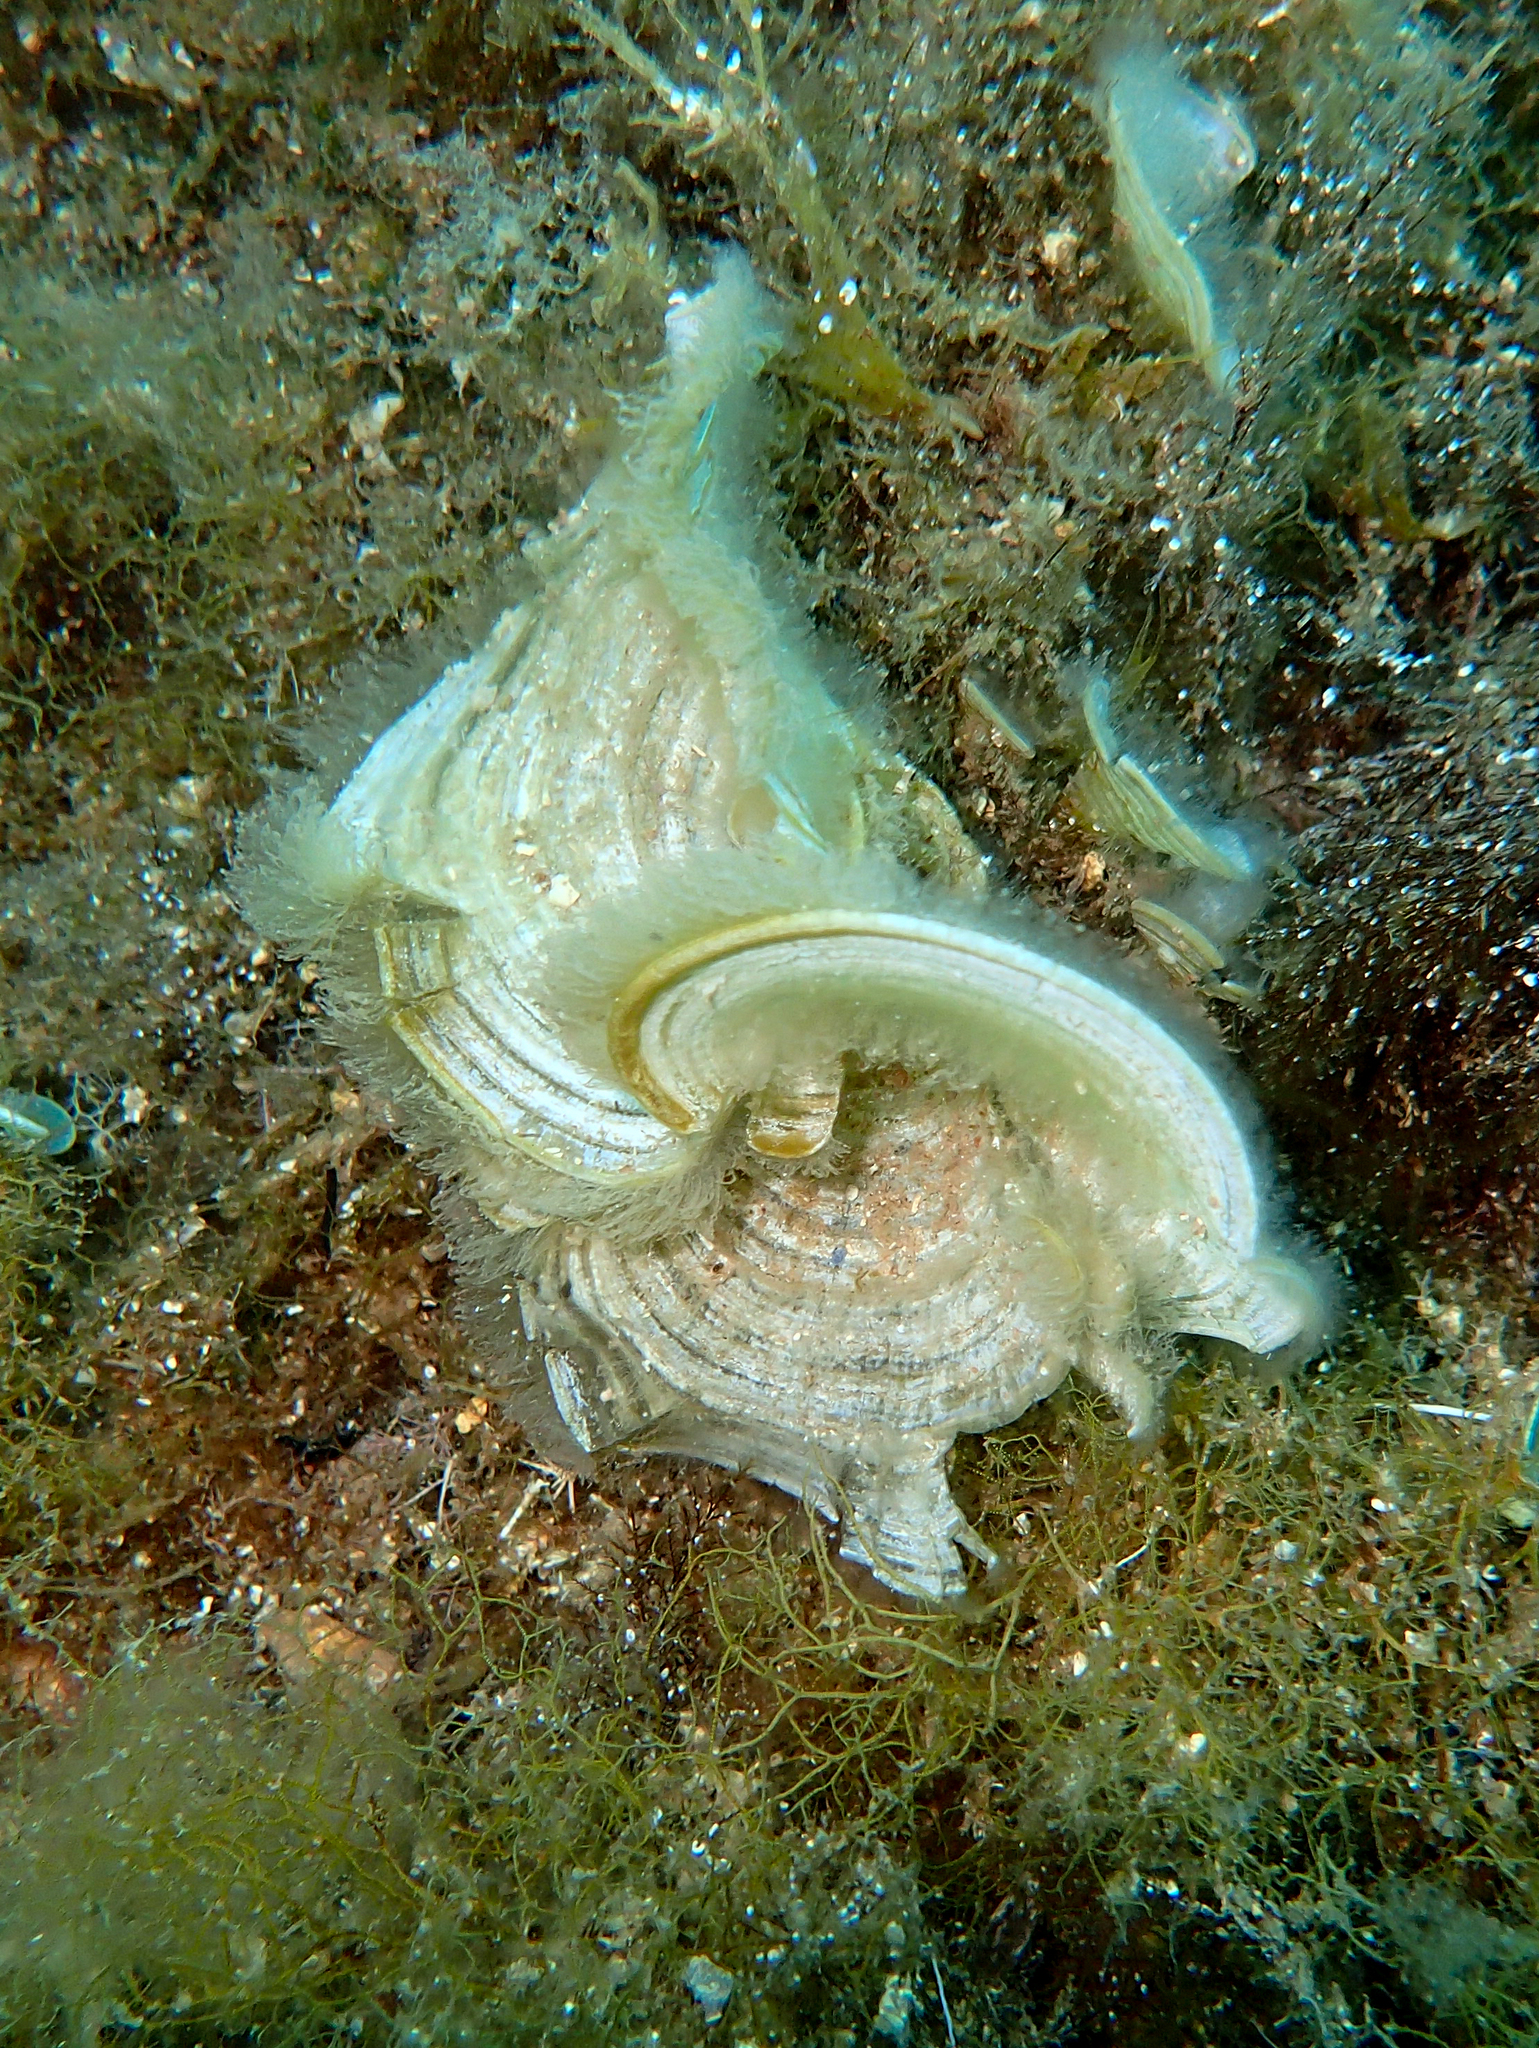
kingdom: Chromista
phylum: Ochrophyta
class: Phaeophyceae
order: Dictyotales
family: Dictyotaceae
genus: Padina
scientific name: Padina
